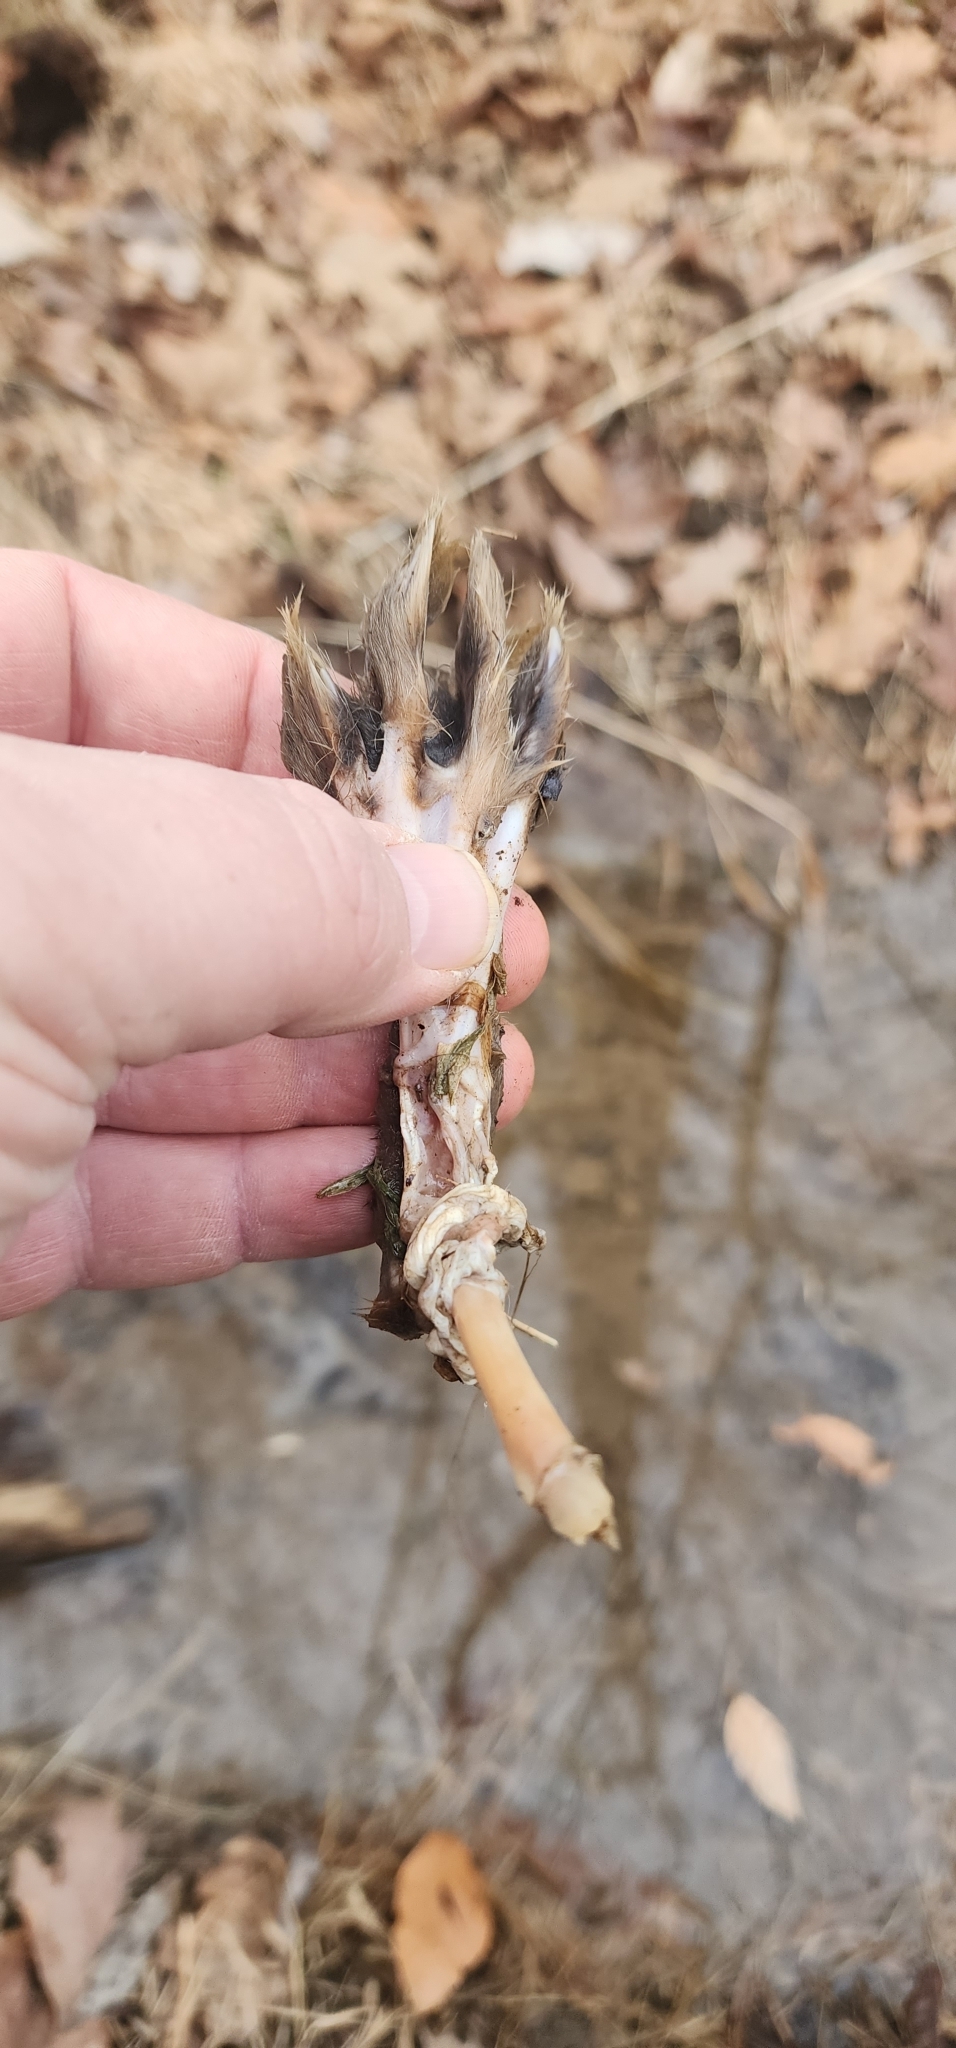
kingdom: Animalia
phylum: Chordata
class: Mammalia
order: Lagomorpha
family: Leporidae
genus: Sylvilagus
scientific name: Sylvilagus floridanus
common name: Eastern cottontail
